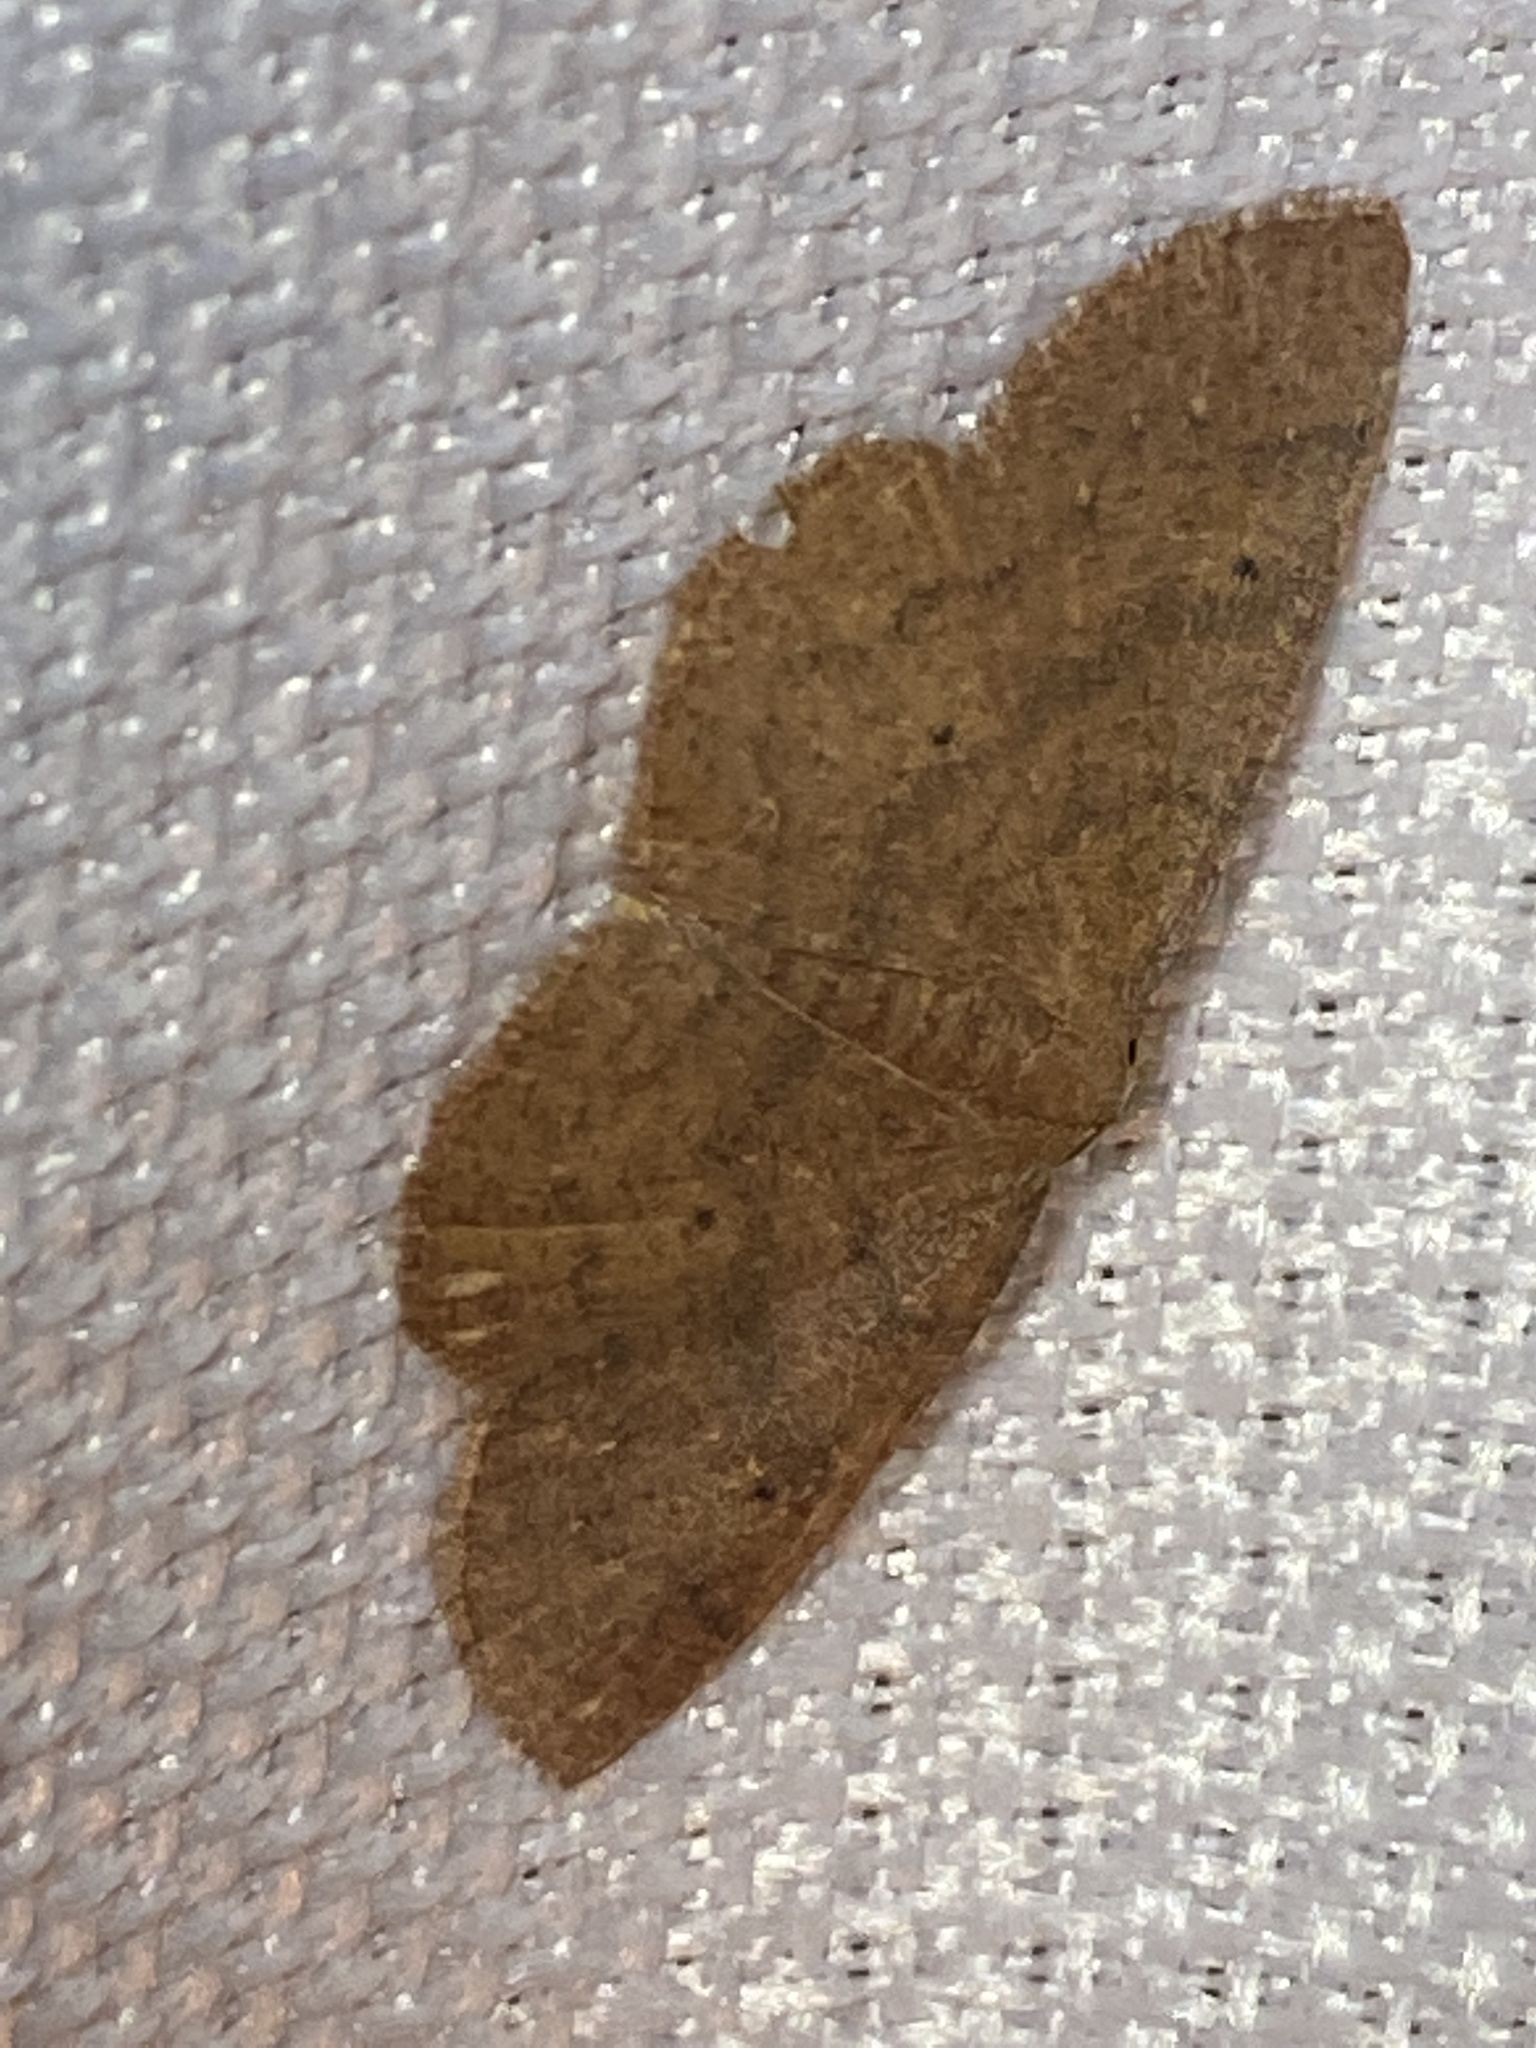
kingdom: Animalia
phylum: Arthropoda
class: Insecta
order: Lepidoptera
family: Geometridae
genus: Ilexia
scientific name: Ilexia intractata
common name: Black-dotted ruddy moth
